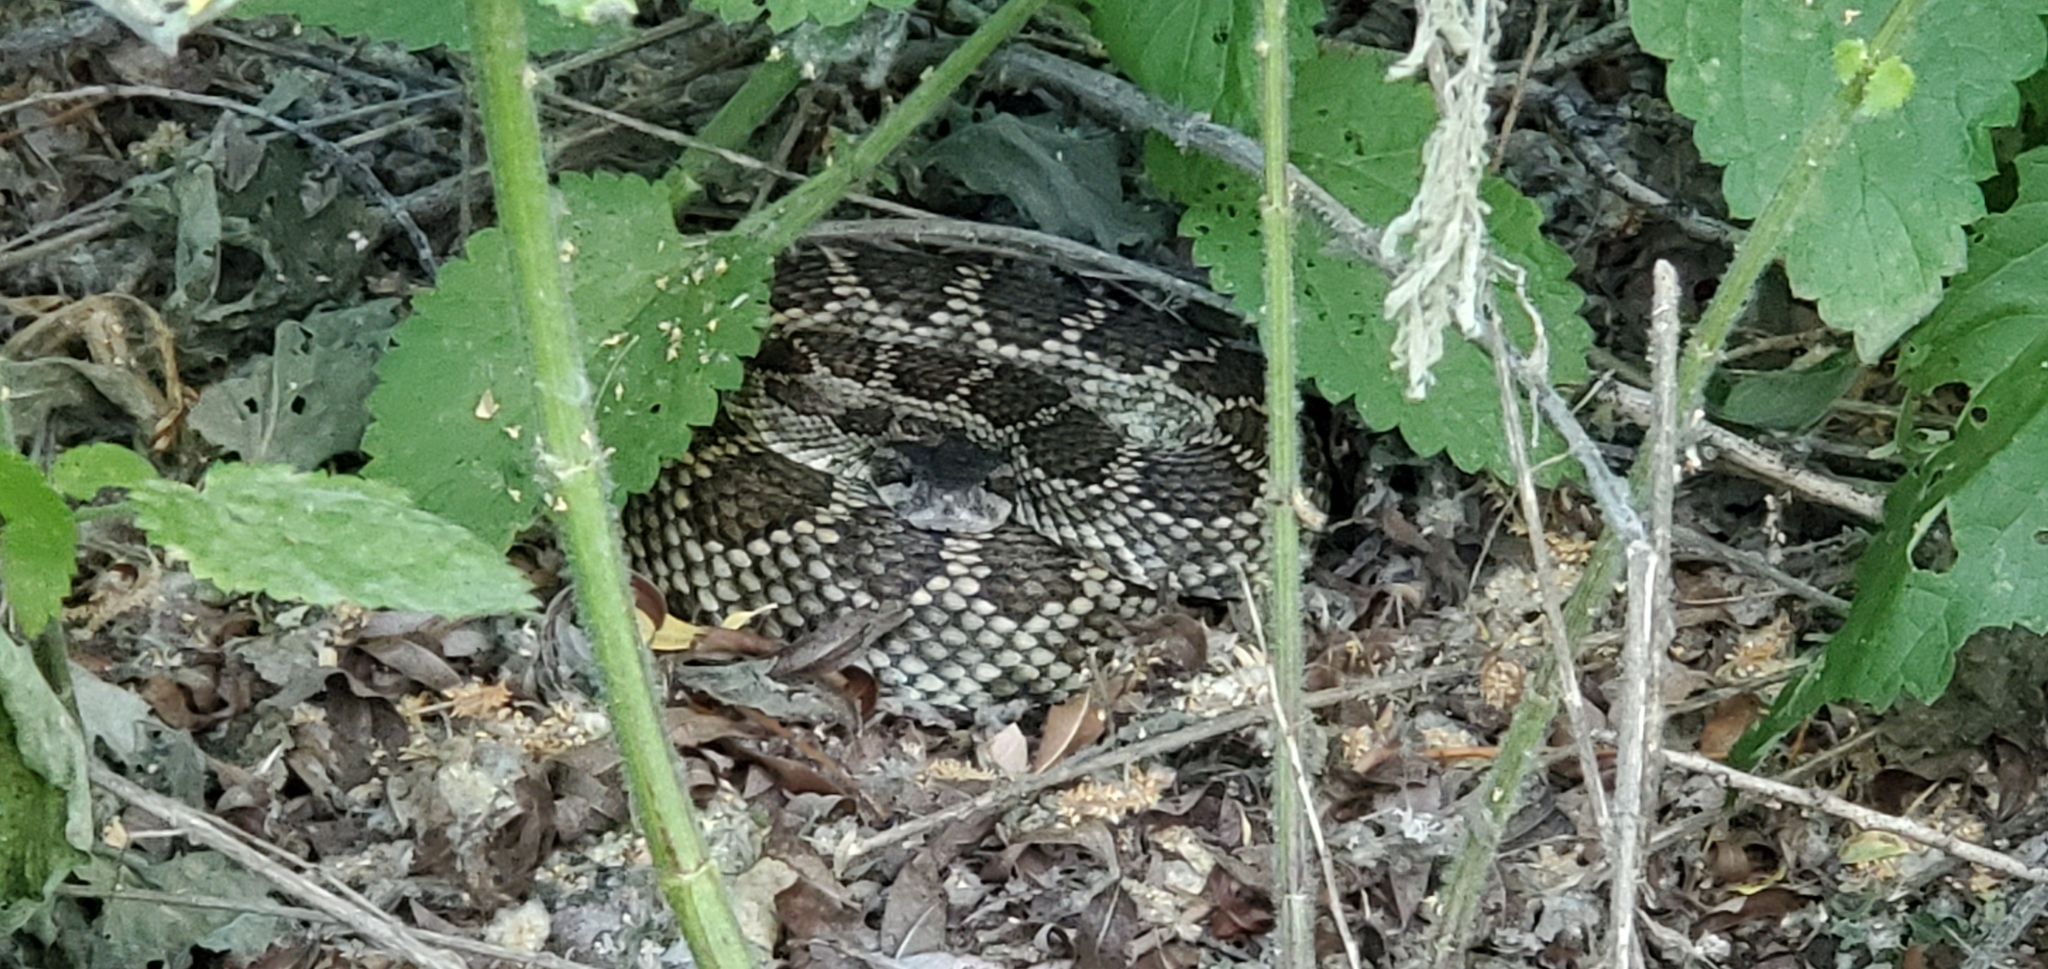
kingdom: Animalia
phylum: Chordata
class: Squamata
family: Viperidae
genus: Crotalus
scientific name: Crotalus oreganus
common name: Abyssus
